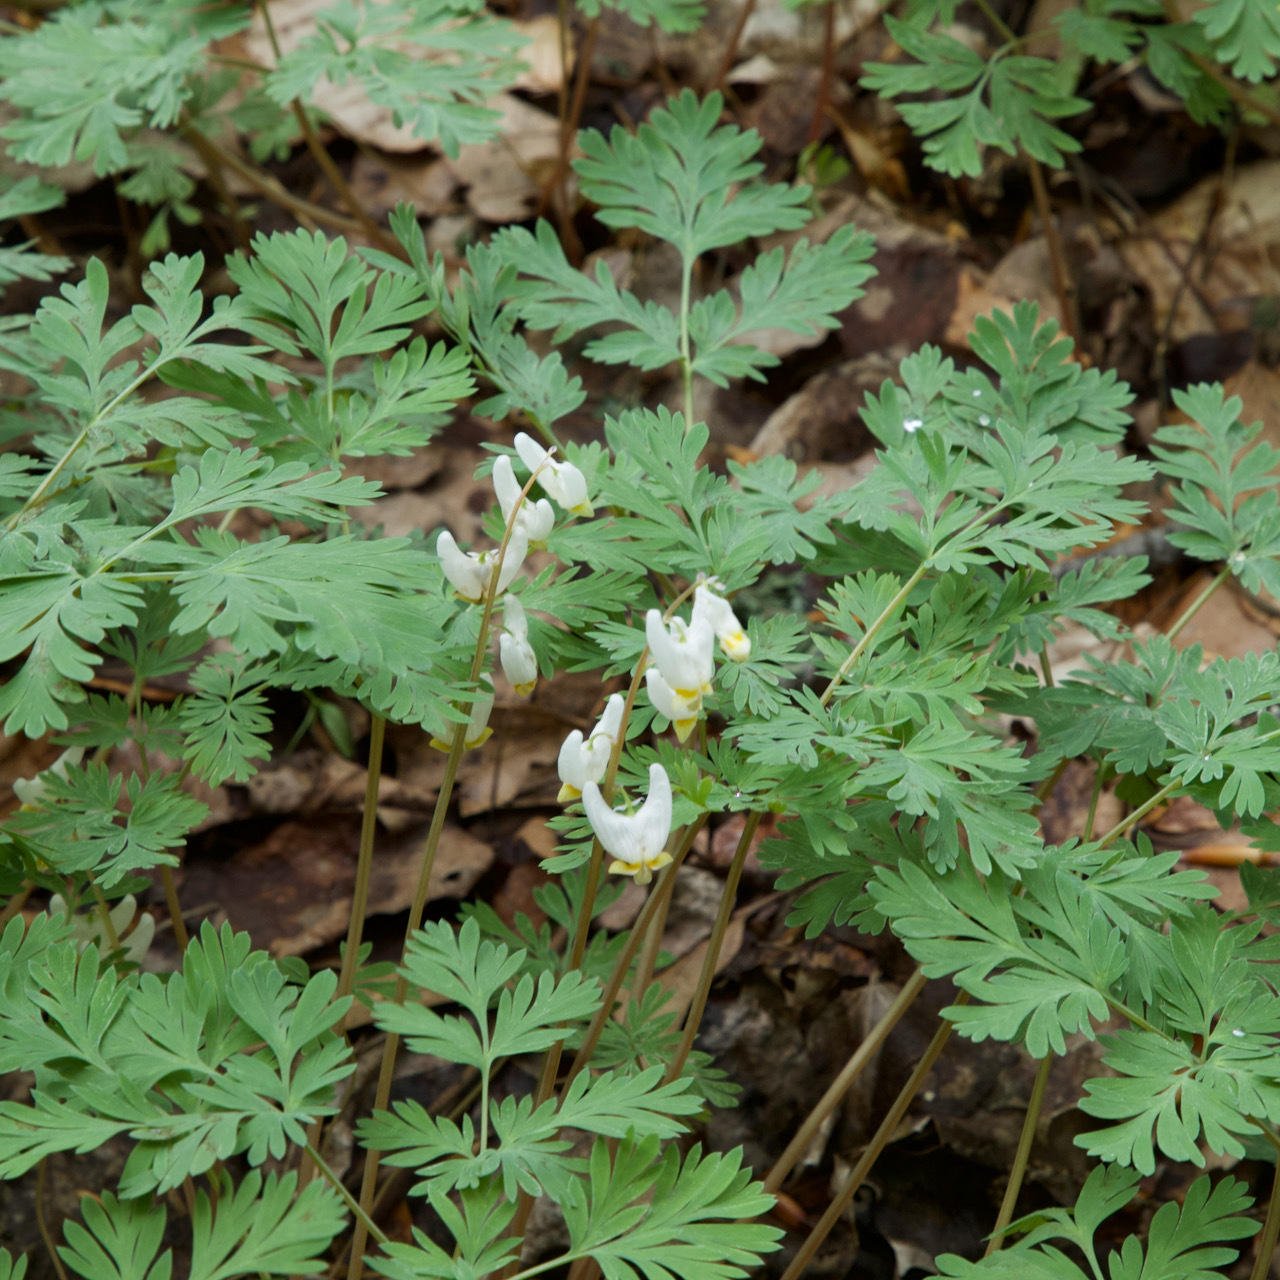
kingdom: Plantae
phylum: Tracheophyta
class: Magnoliopsida
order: Ranunculales
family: Papaveraceae
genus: Dicentra
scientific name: Dicentra cucullaria
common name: Dutchman's breeches
